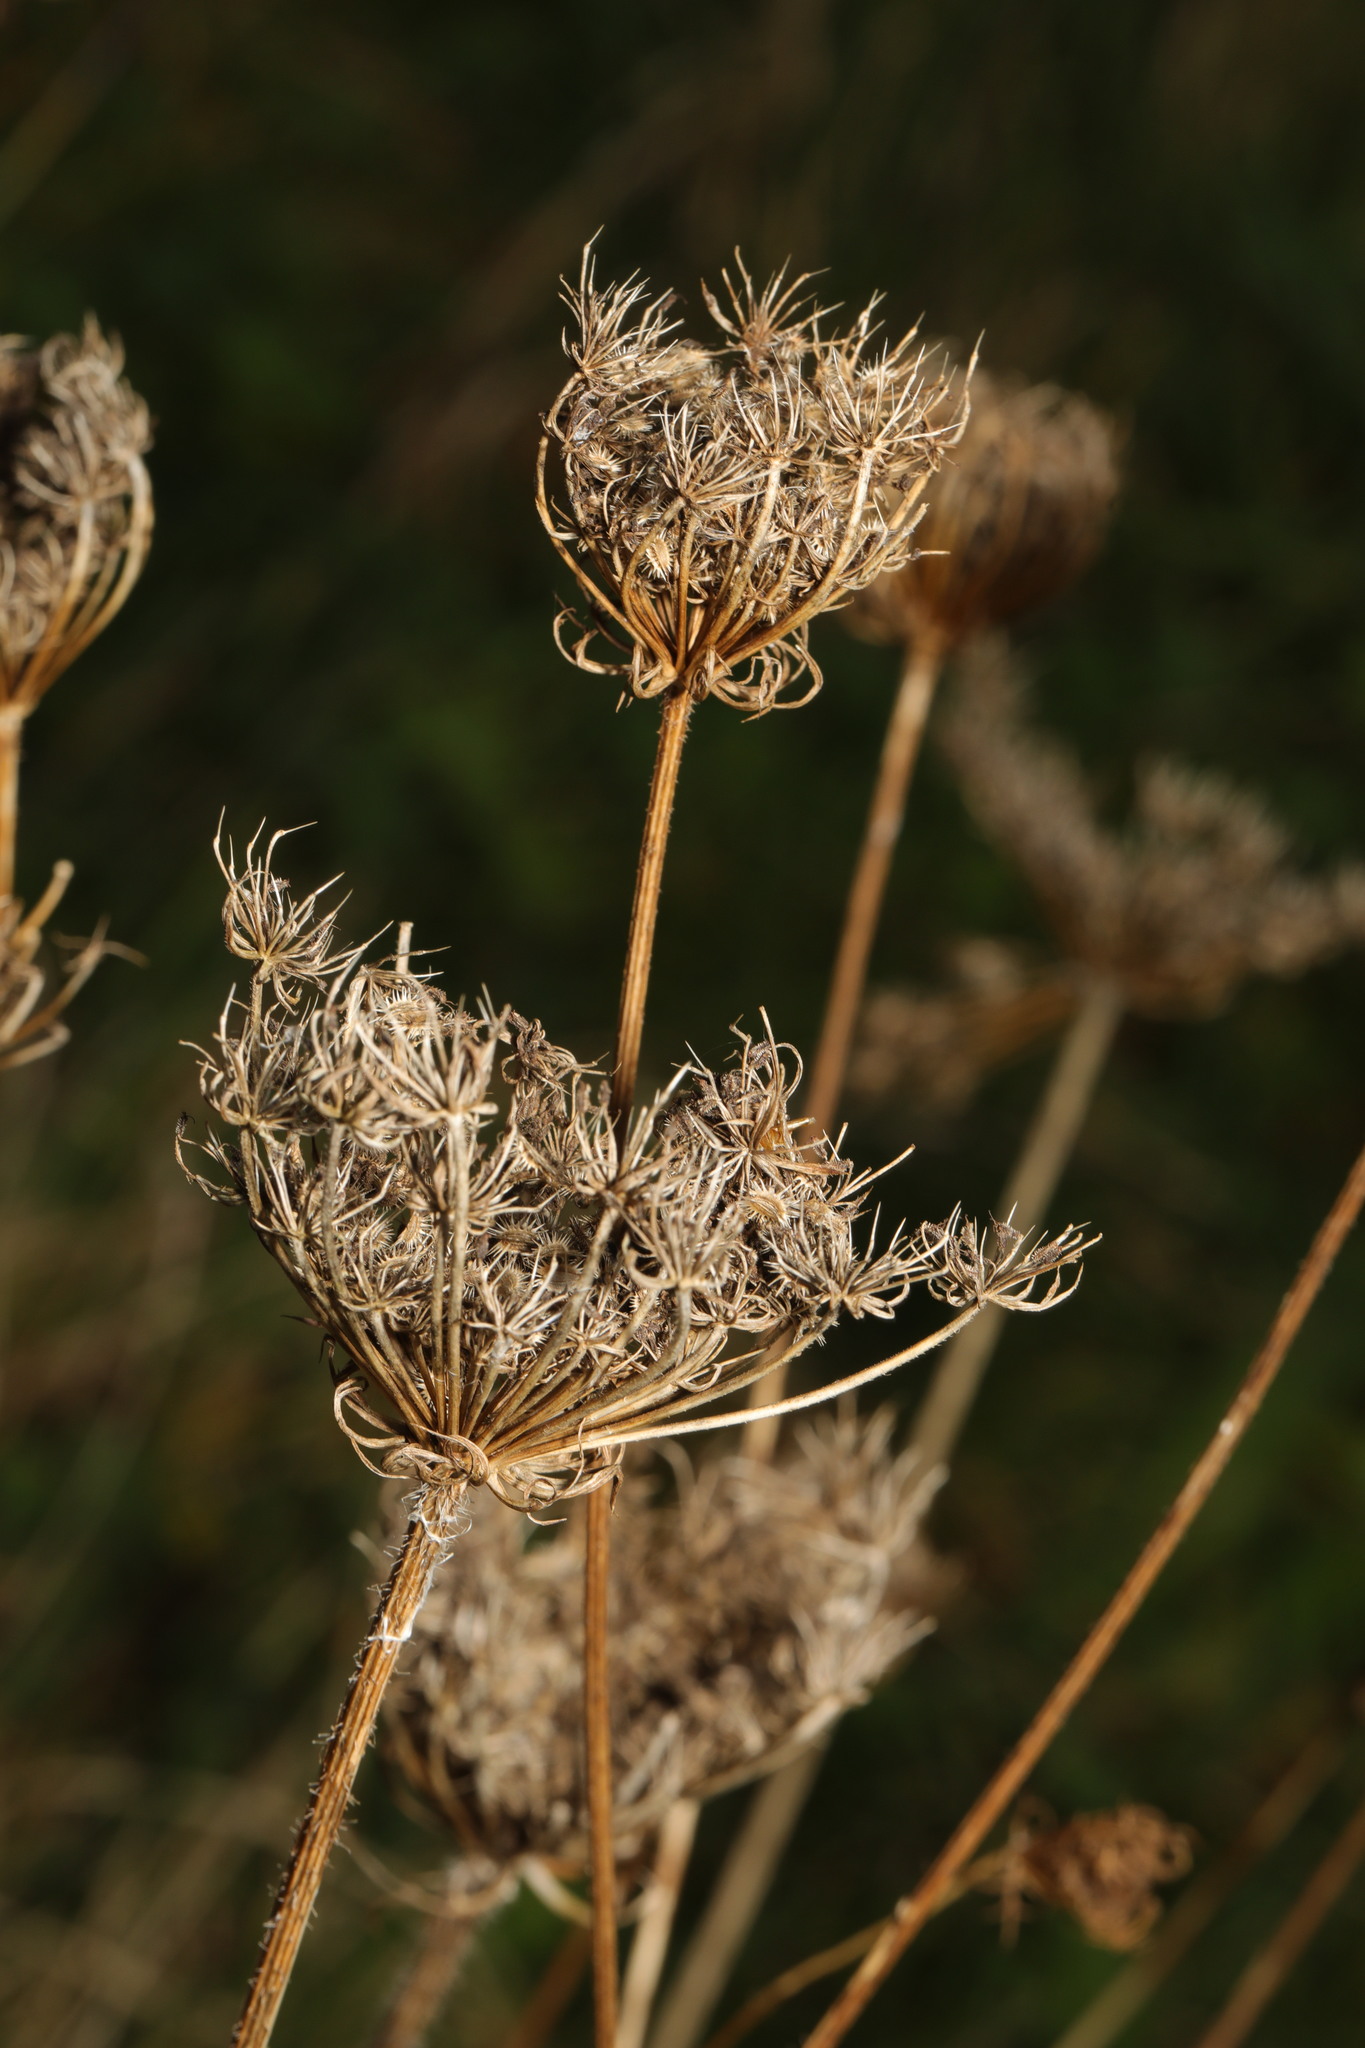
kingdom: Plantae
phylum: Tracheophyta
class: Magnoliopsida
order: Apiales
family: Apiaceae
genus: Daucus
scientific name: Daucus carota
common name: Wild carrot
